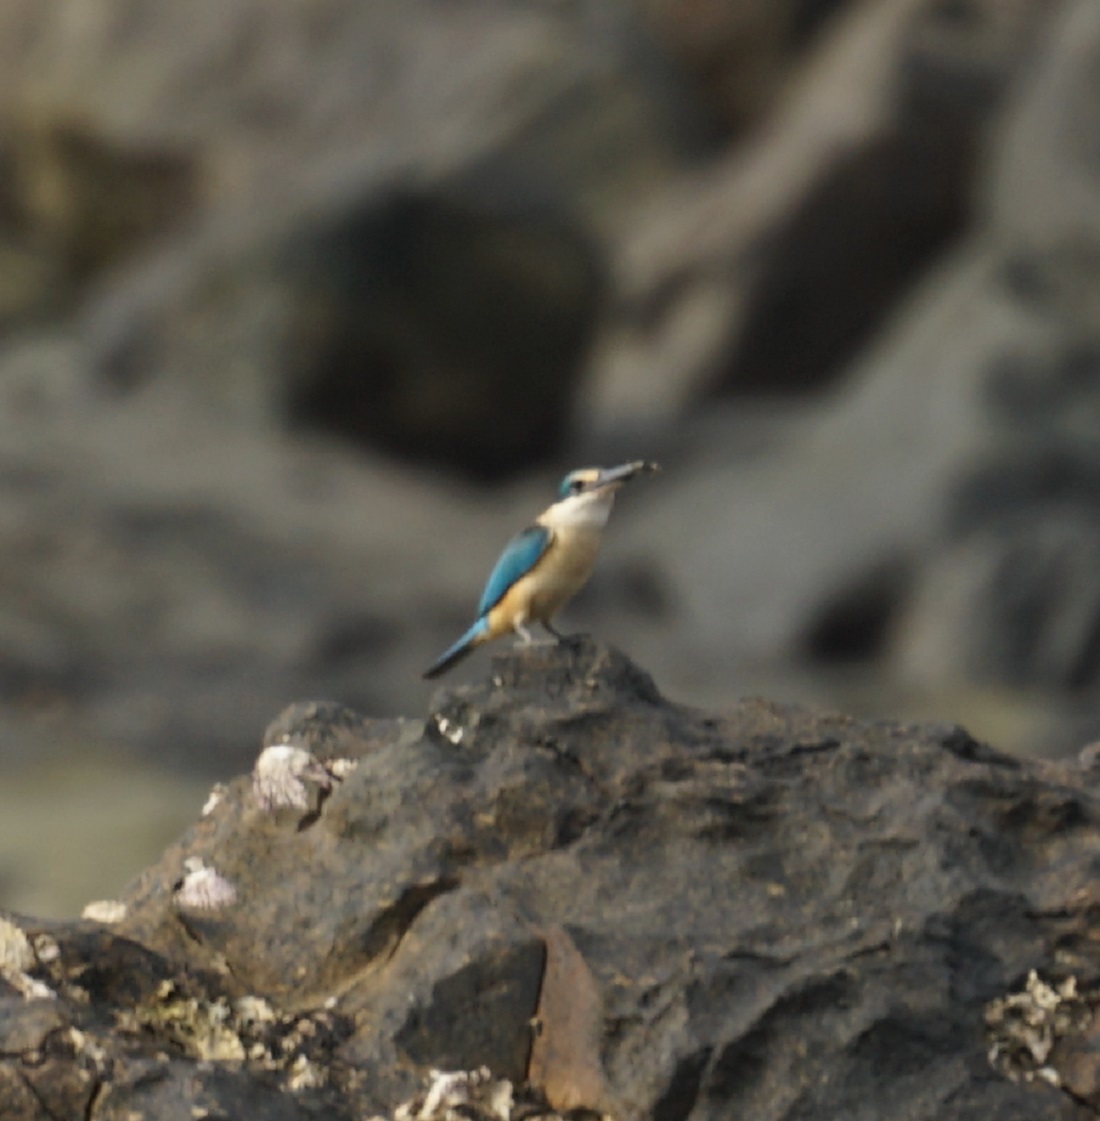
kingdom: Animalia
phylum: Chordata
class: Aves
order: Coraciiformes
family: Alcedinidae
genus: Todiramphus
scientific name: Todiramphus sanctus
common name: Sacred kingfisher
